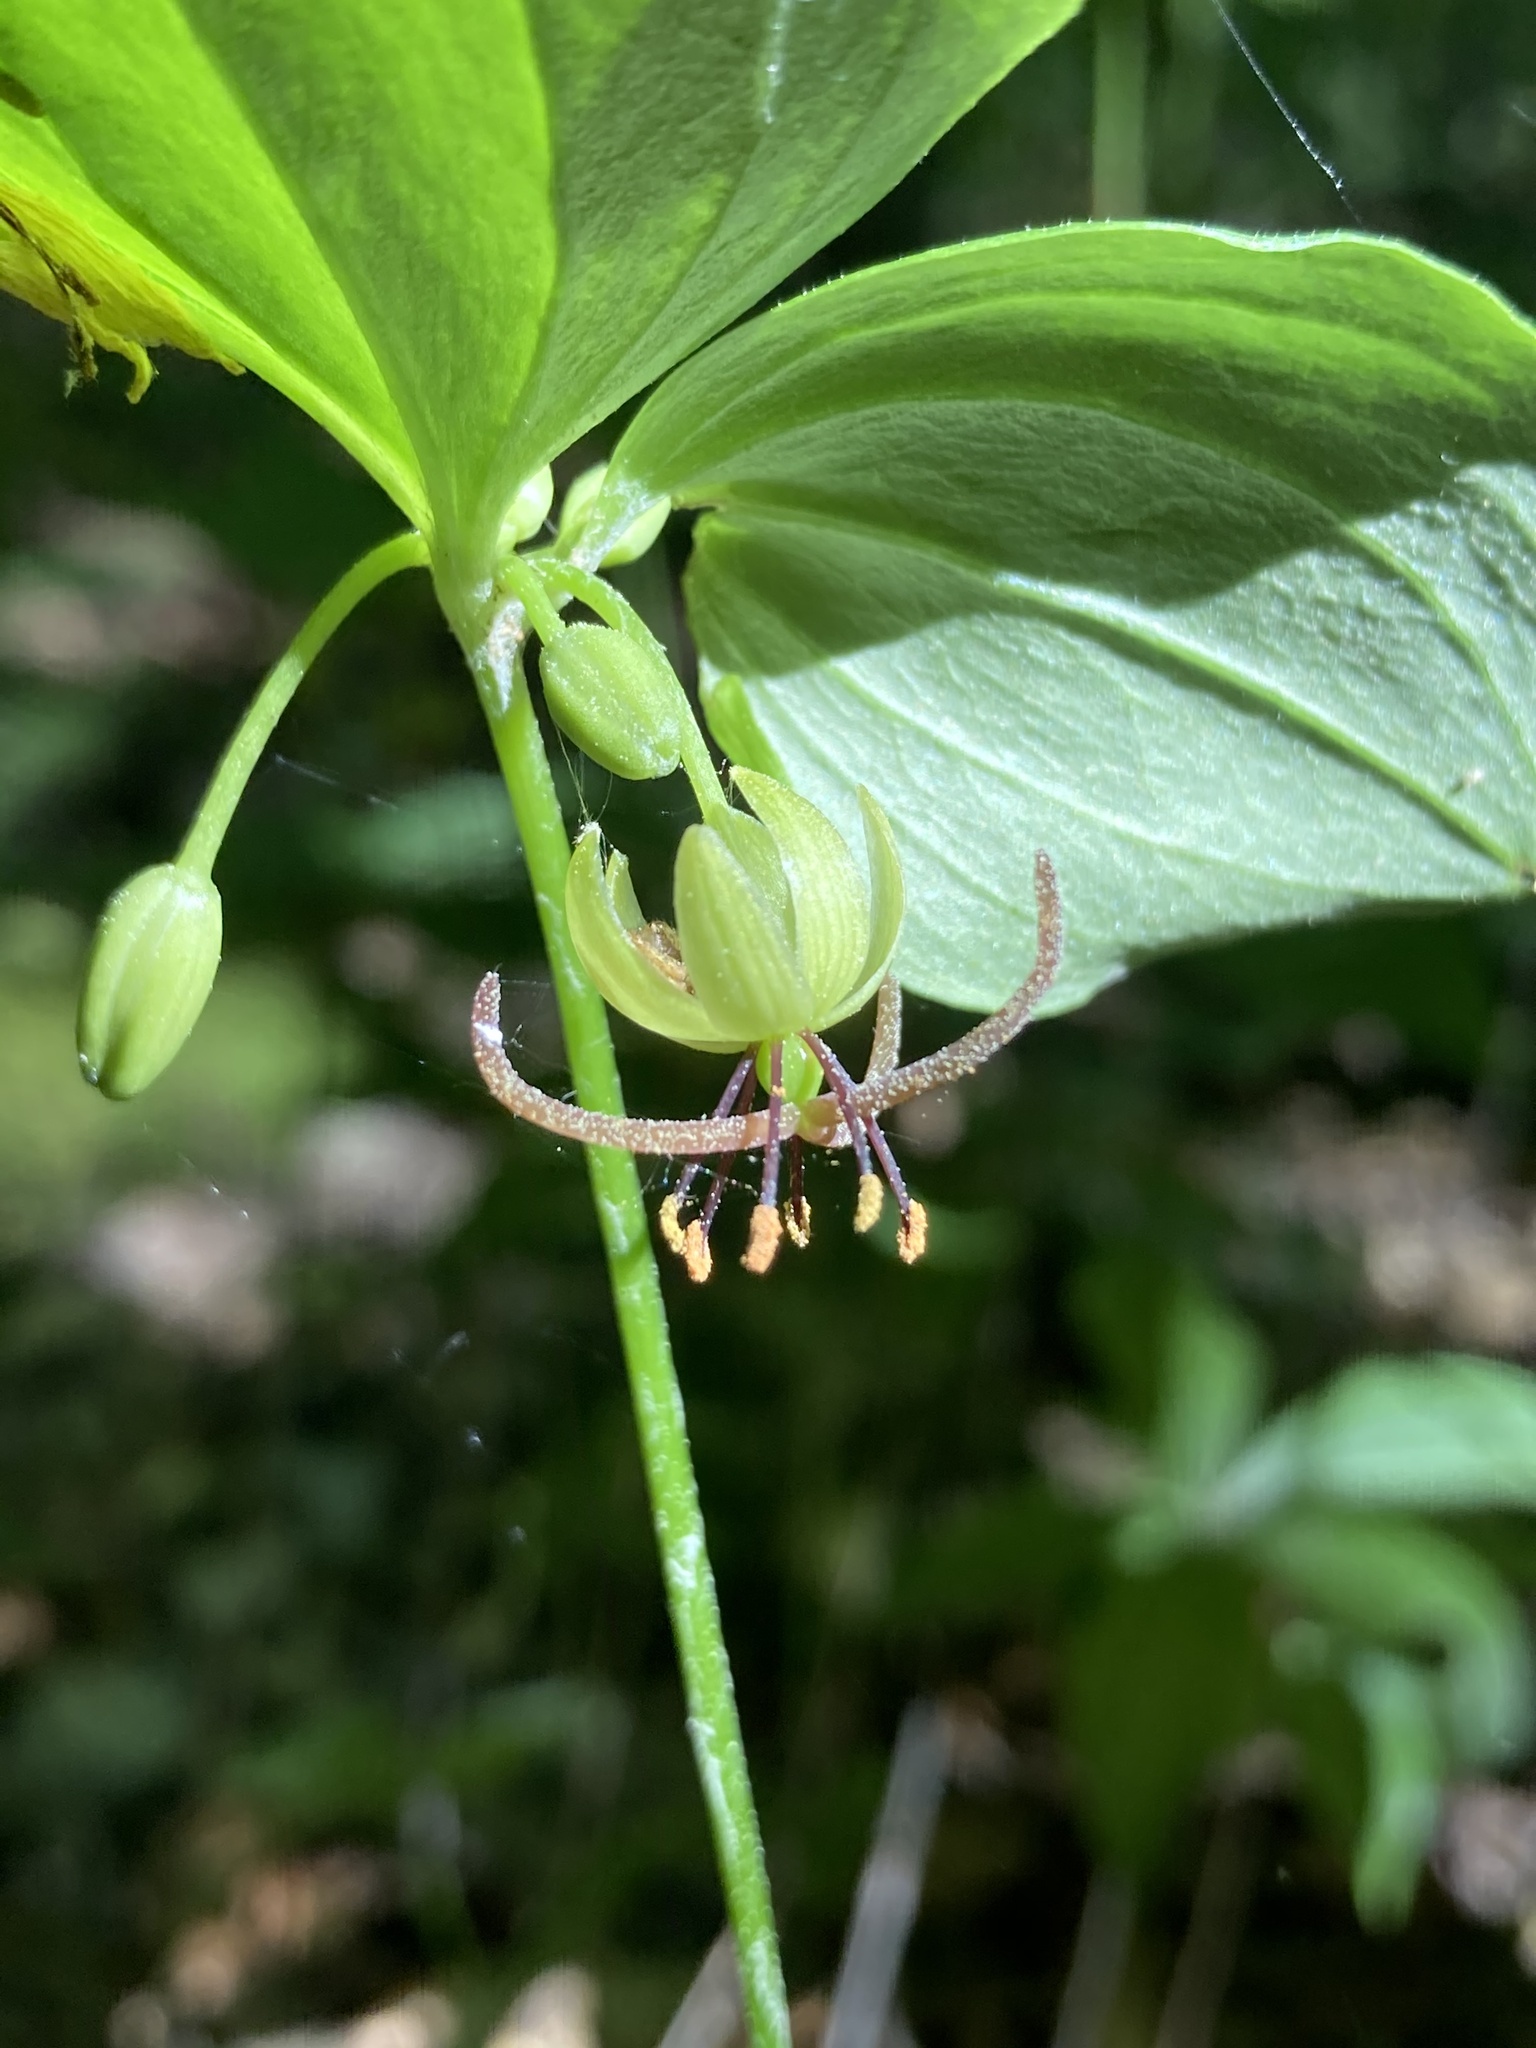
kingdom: Plantae
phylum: Tracheophyta
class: Liliopsida
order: Liliales
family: Liliaceae
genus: Medeola
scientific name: Medeola virginiana
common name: Indian cucumber-root
